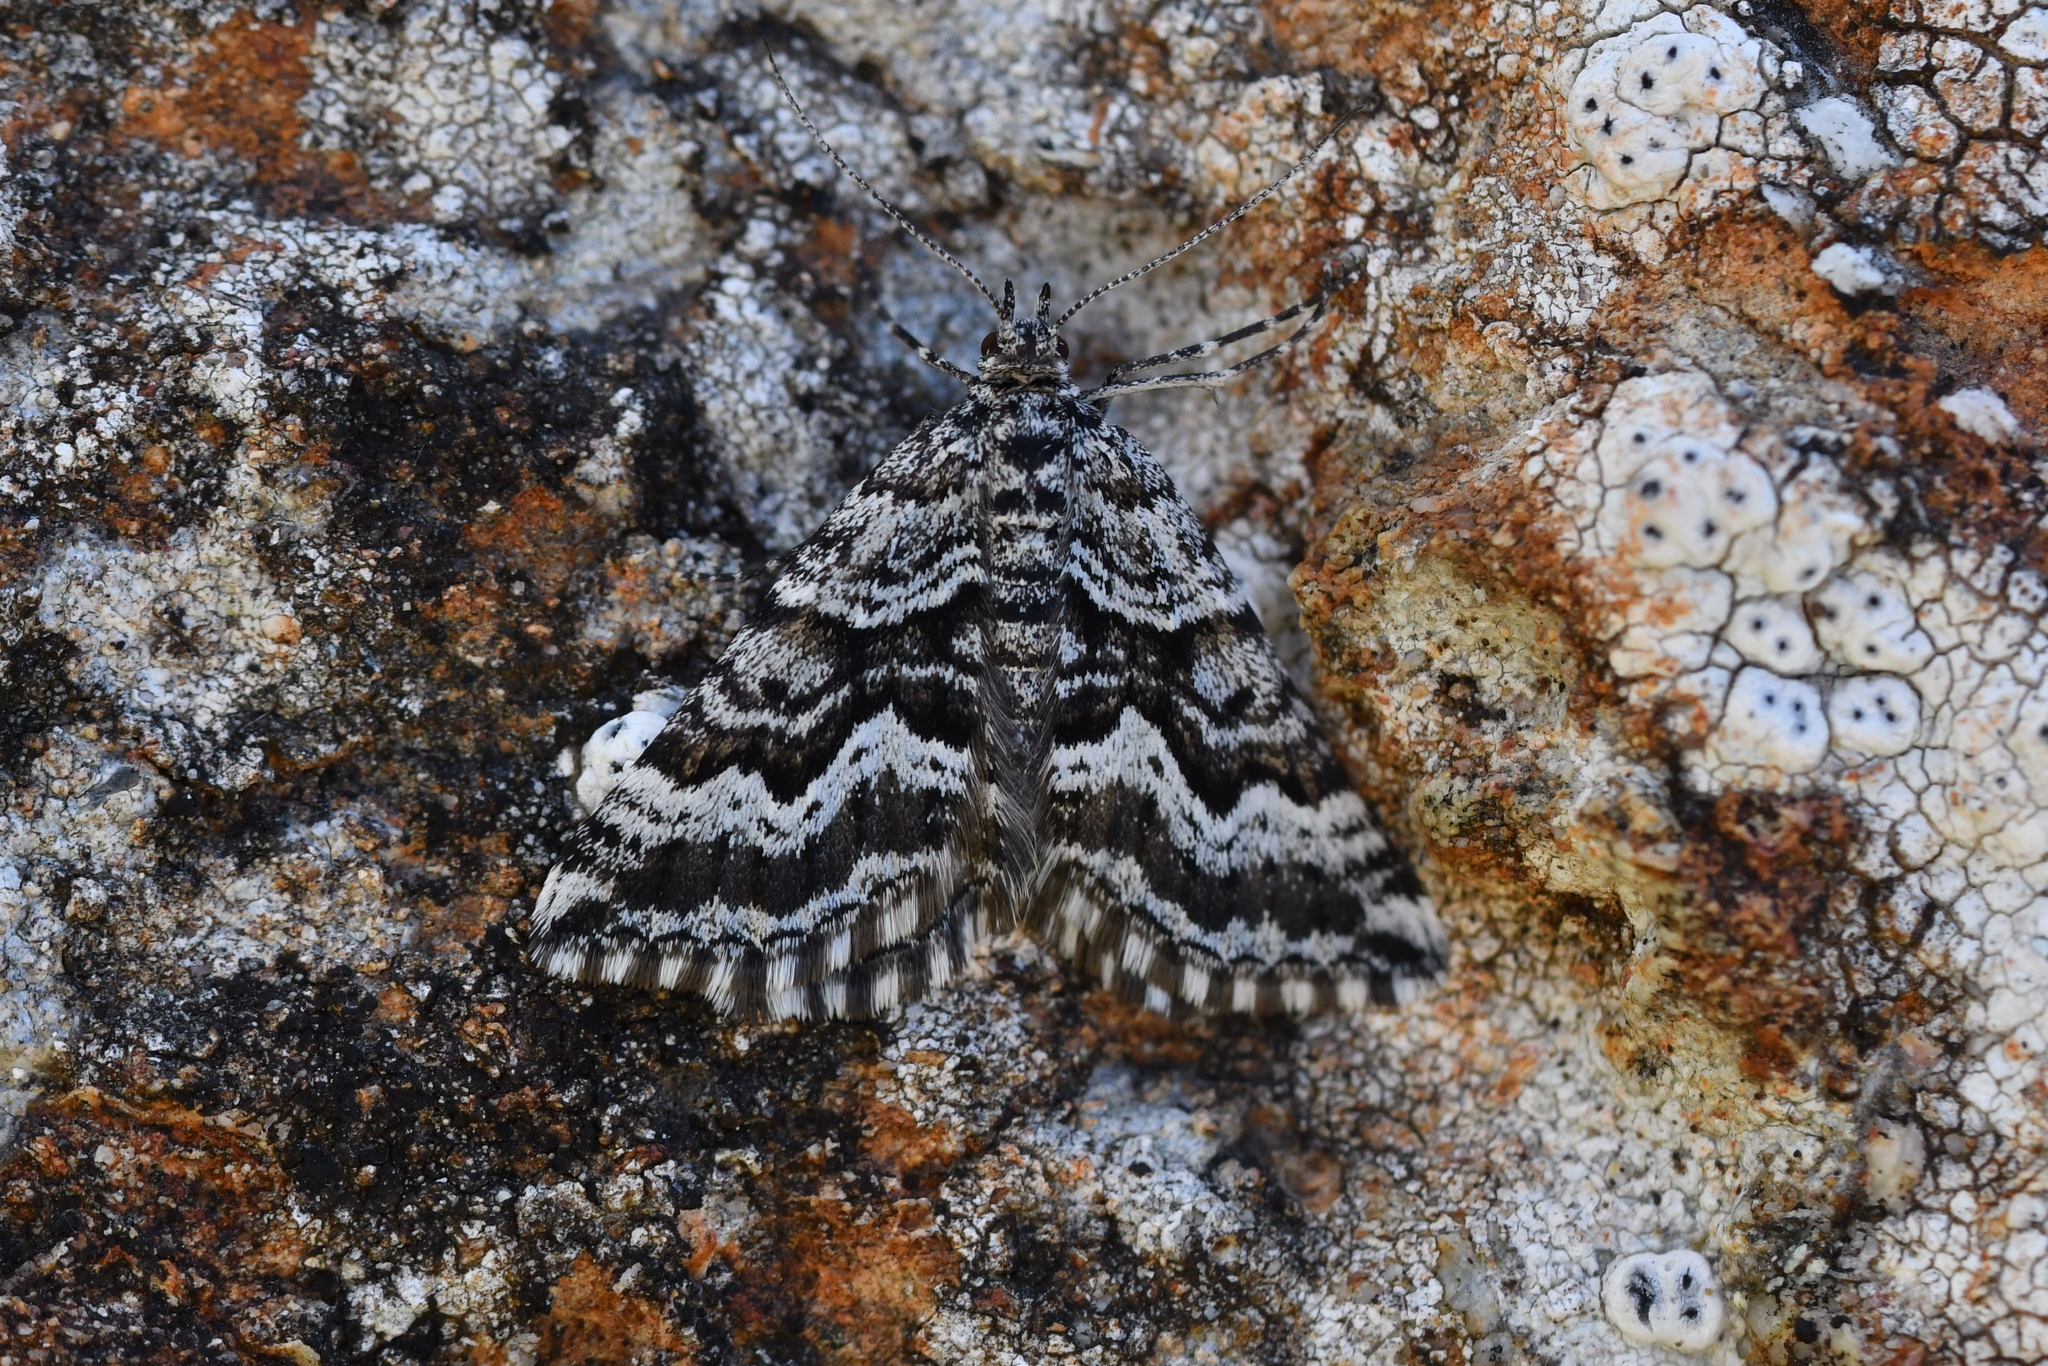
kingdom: Animalia
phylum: Arthropoda
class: Insecta
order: Lepidoptera
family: Geometridae
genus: Aponotoreas
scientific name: Aponotoreas anthracias
